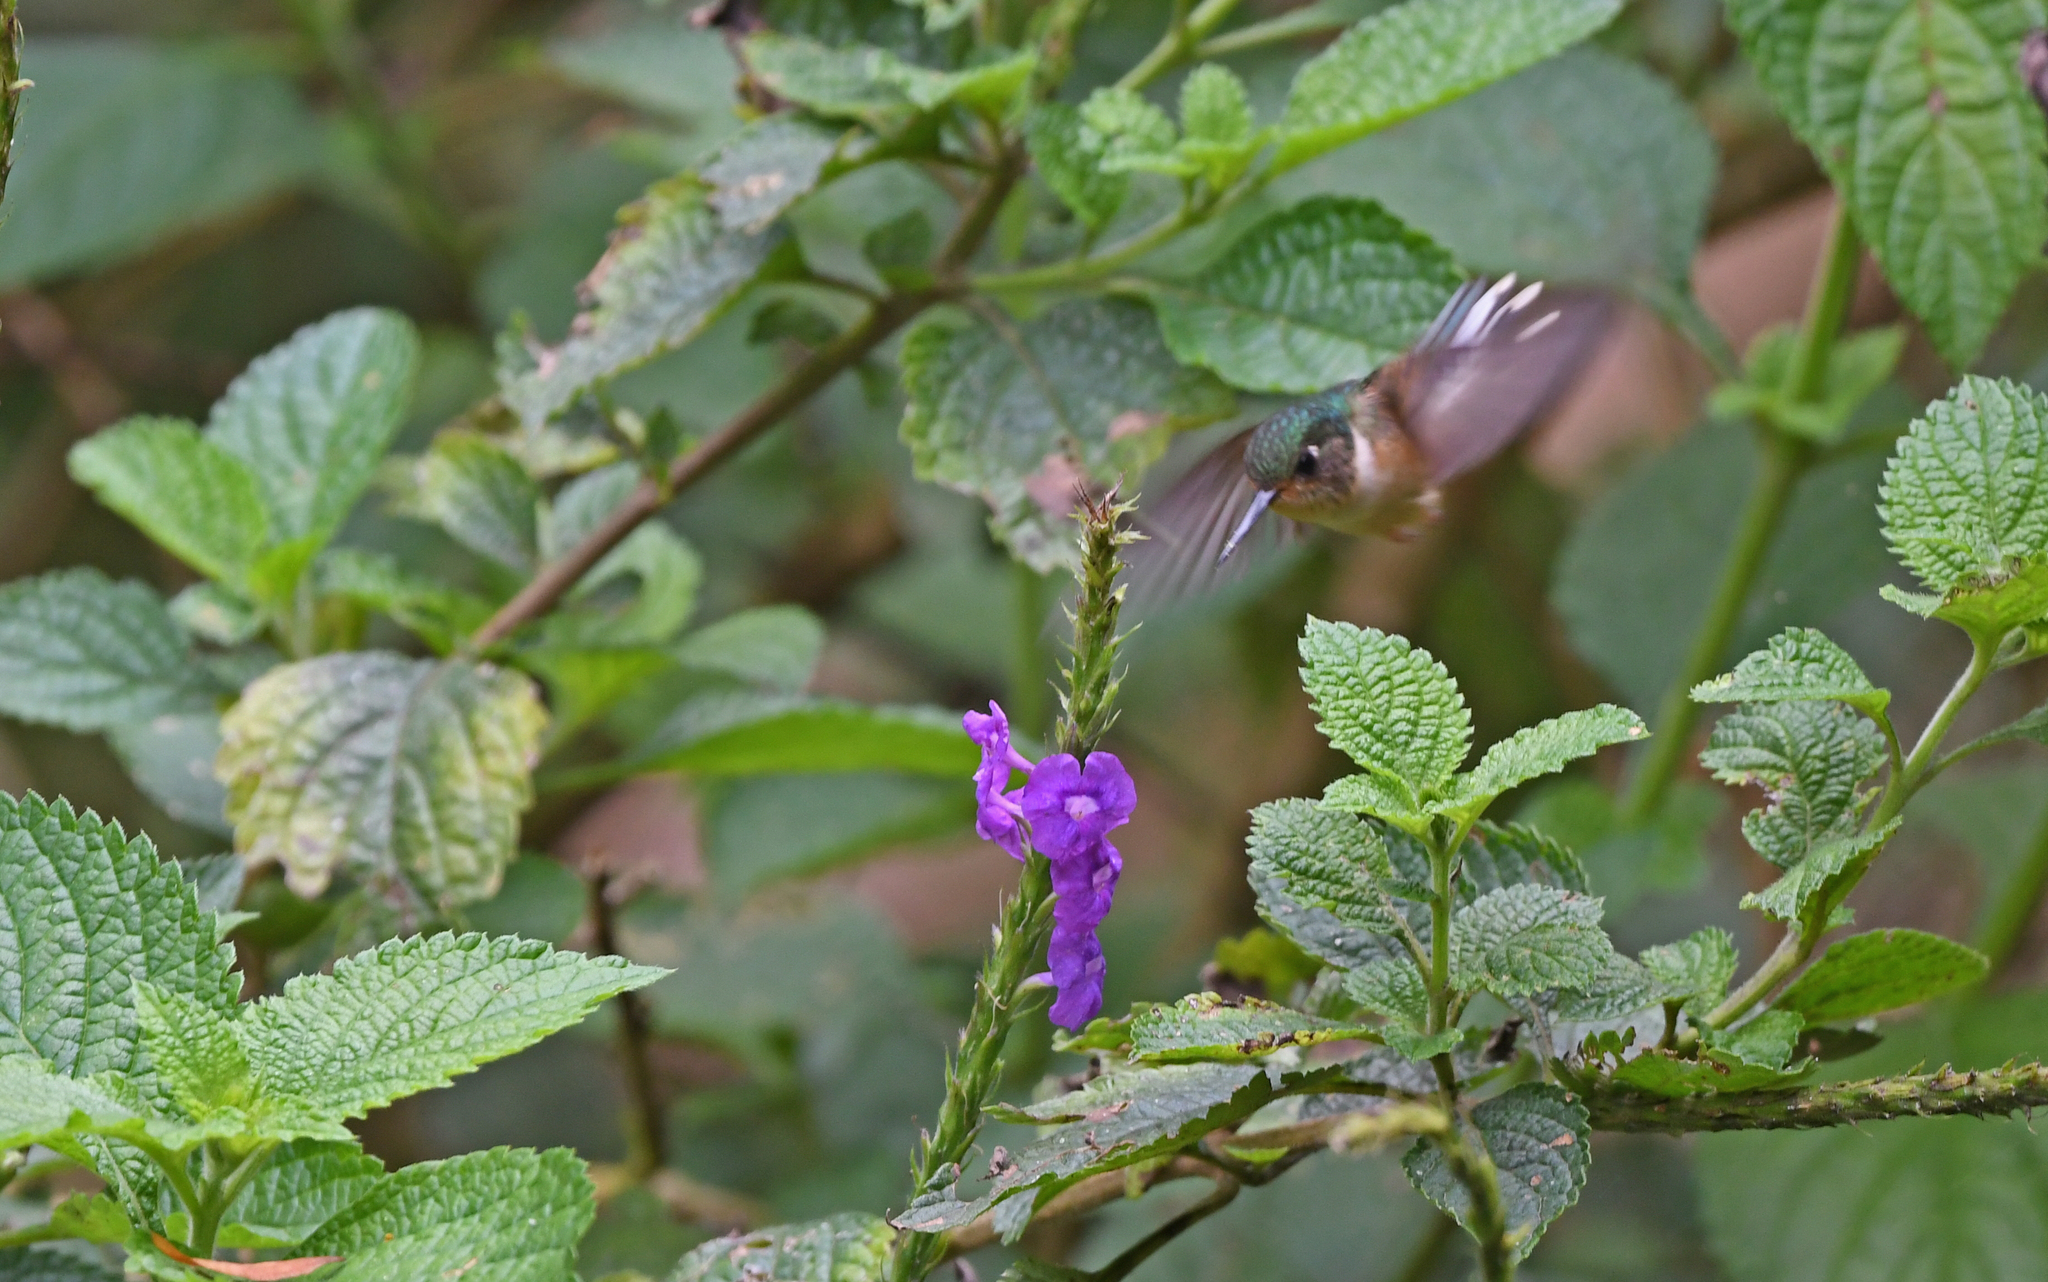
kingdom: Animalia
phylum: Chordata
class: Aves
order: Apodiformes
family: Trochilidae
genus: Phlogophilus
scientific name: Phlogophilus harterti
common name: Peruvian piedtail
